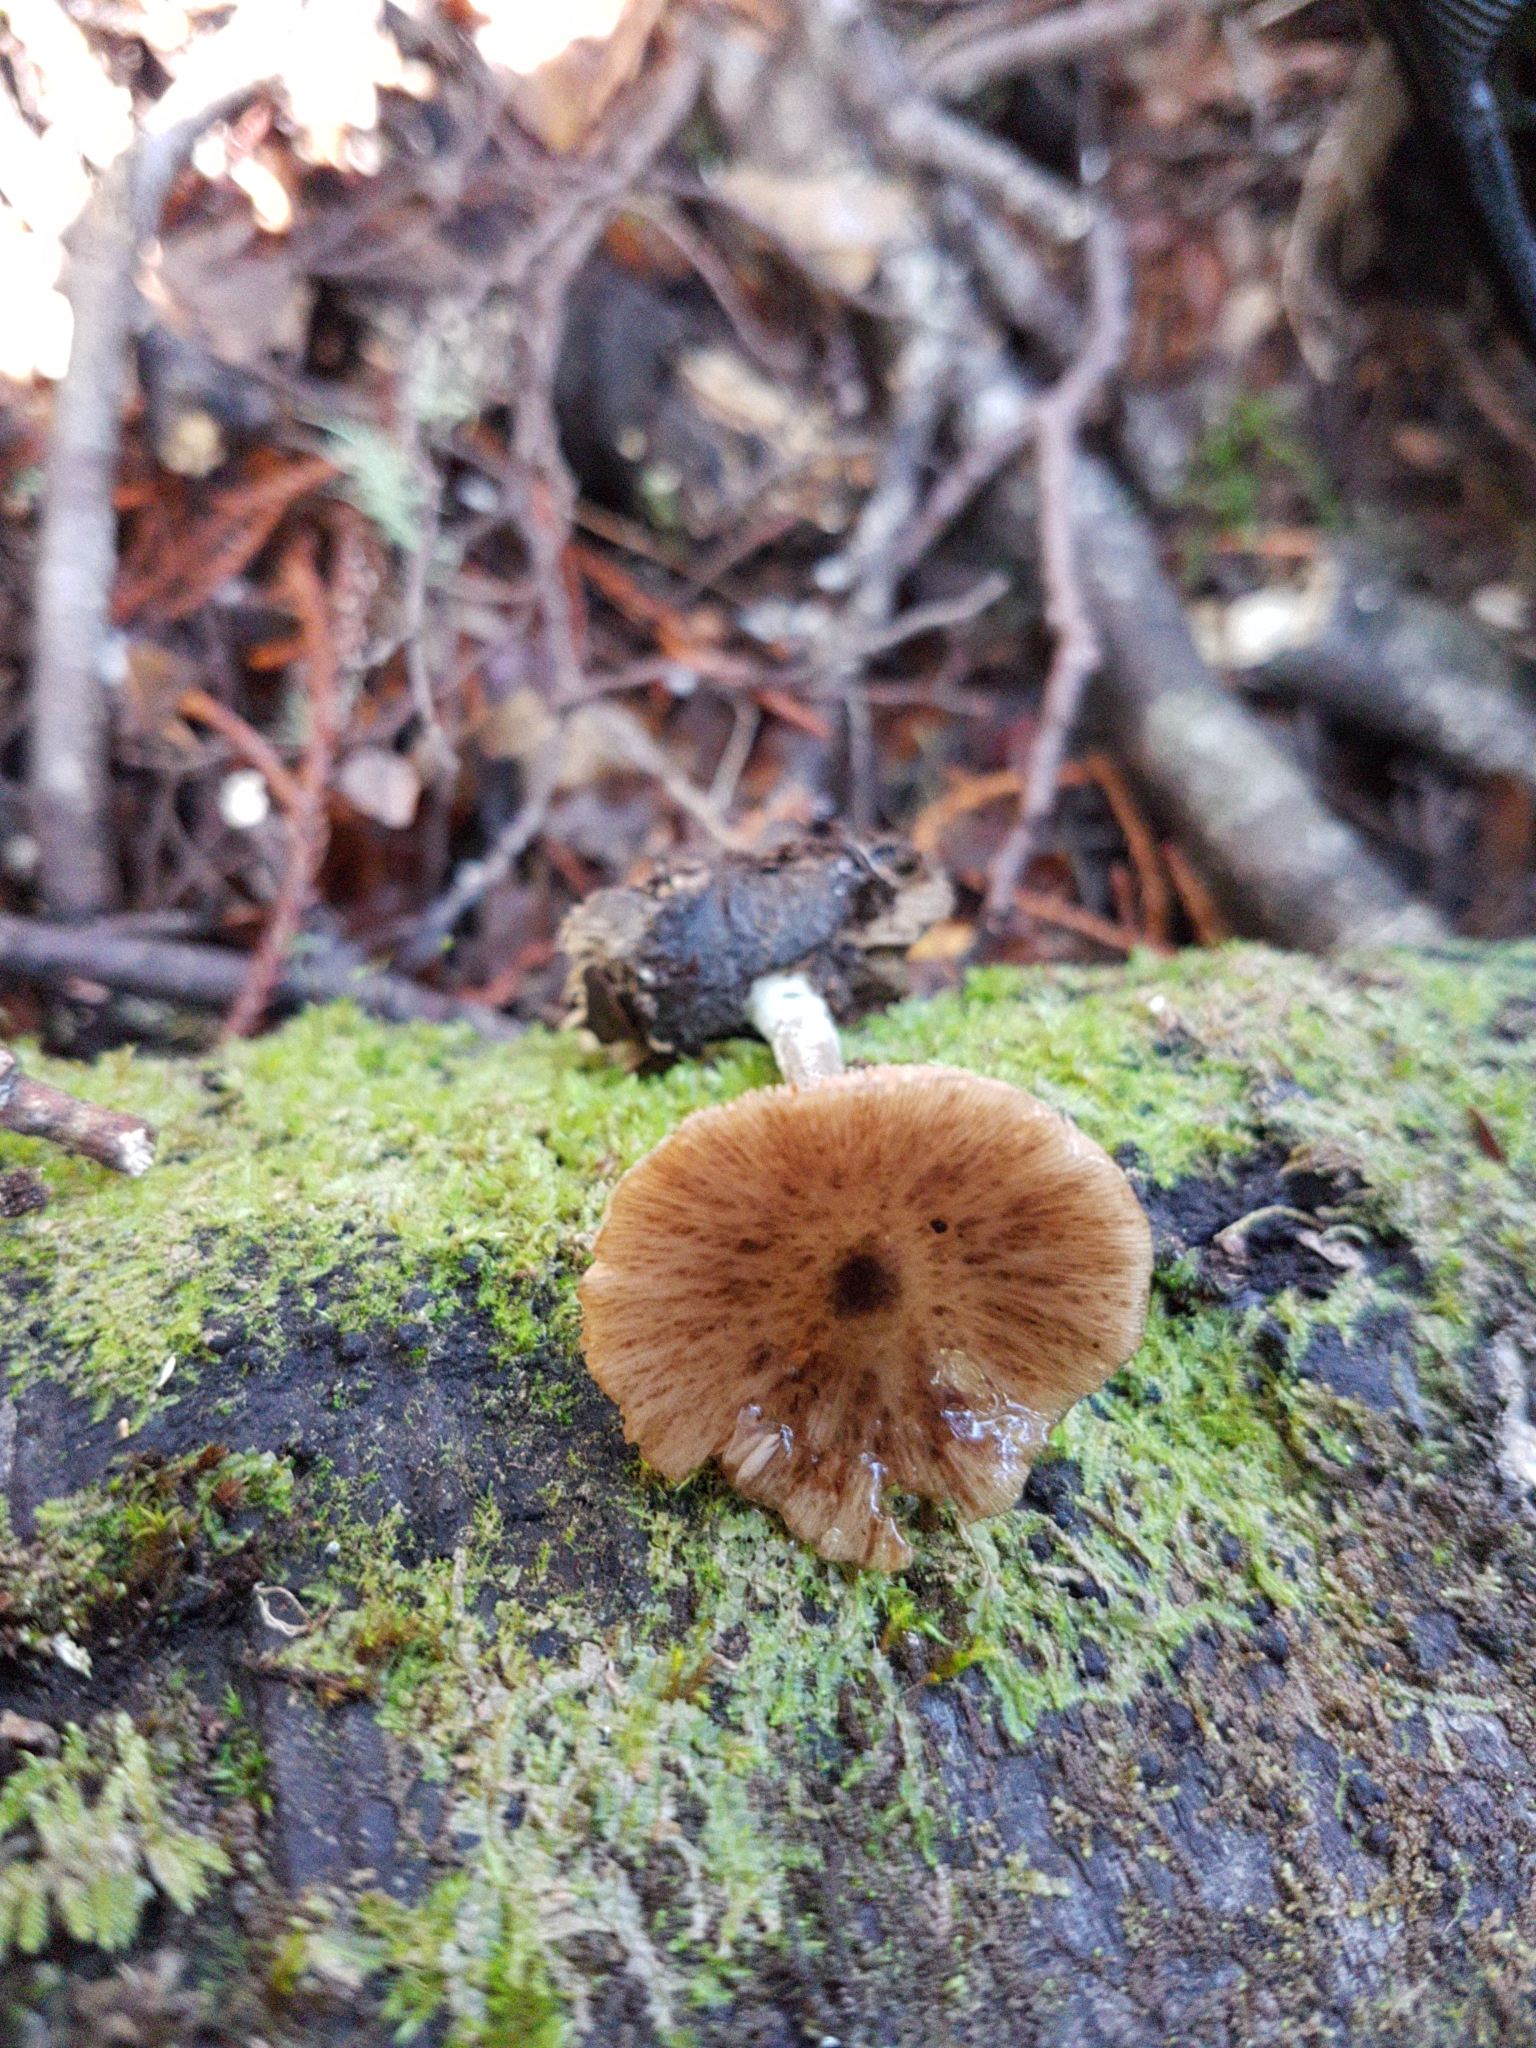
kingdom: Fungi
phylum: Basidiomycota
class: Agaricomycetes
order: Agaricales
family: Bolbitiaceae
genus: Bolbitius
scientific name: Bolbitius muscicola
